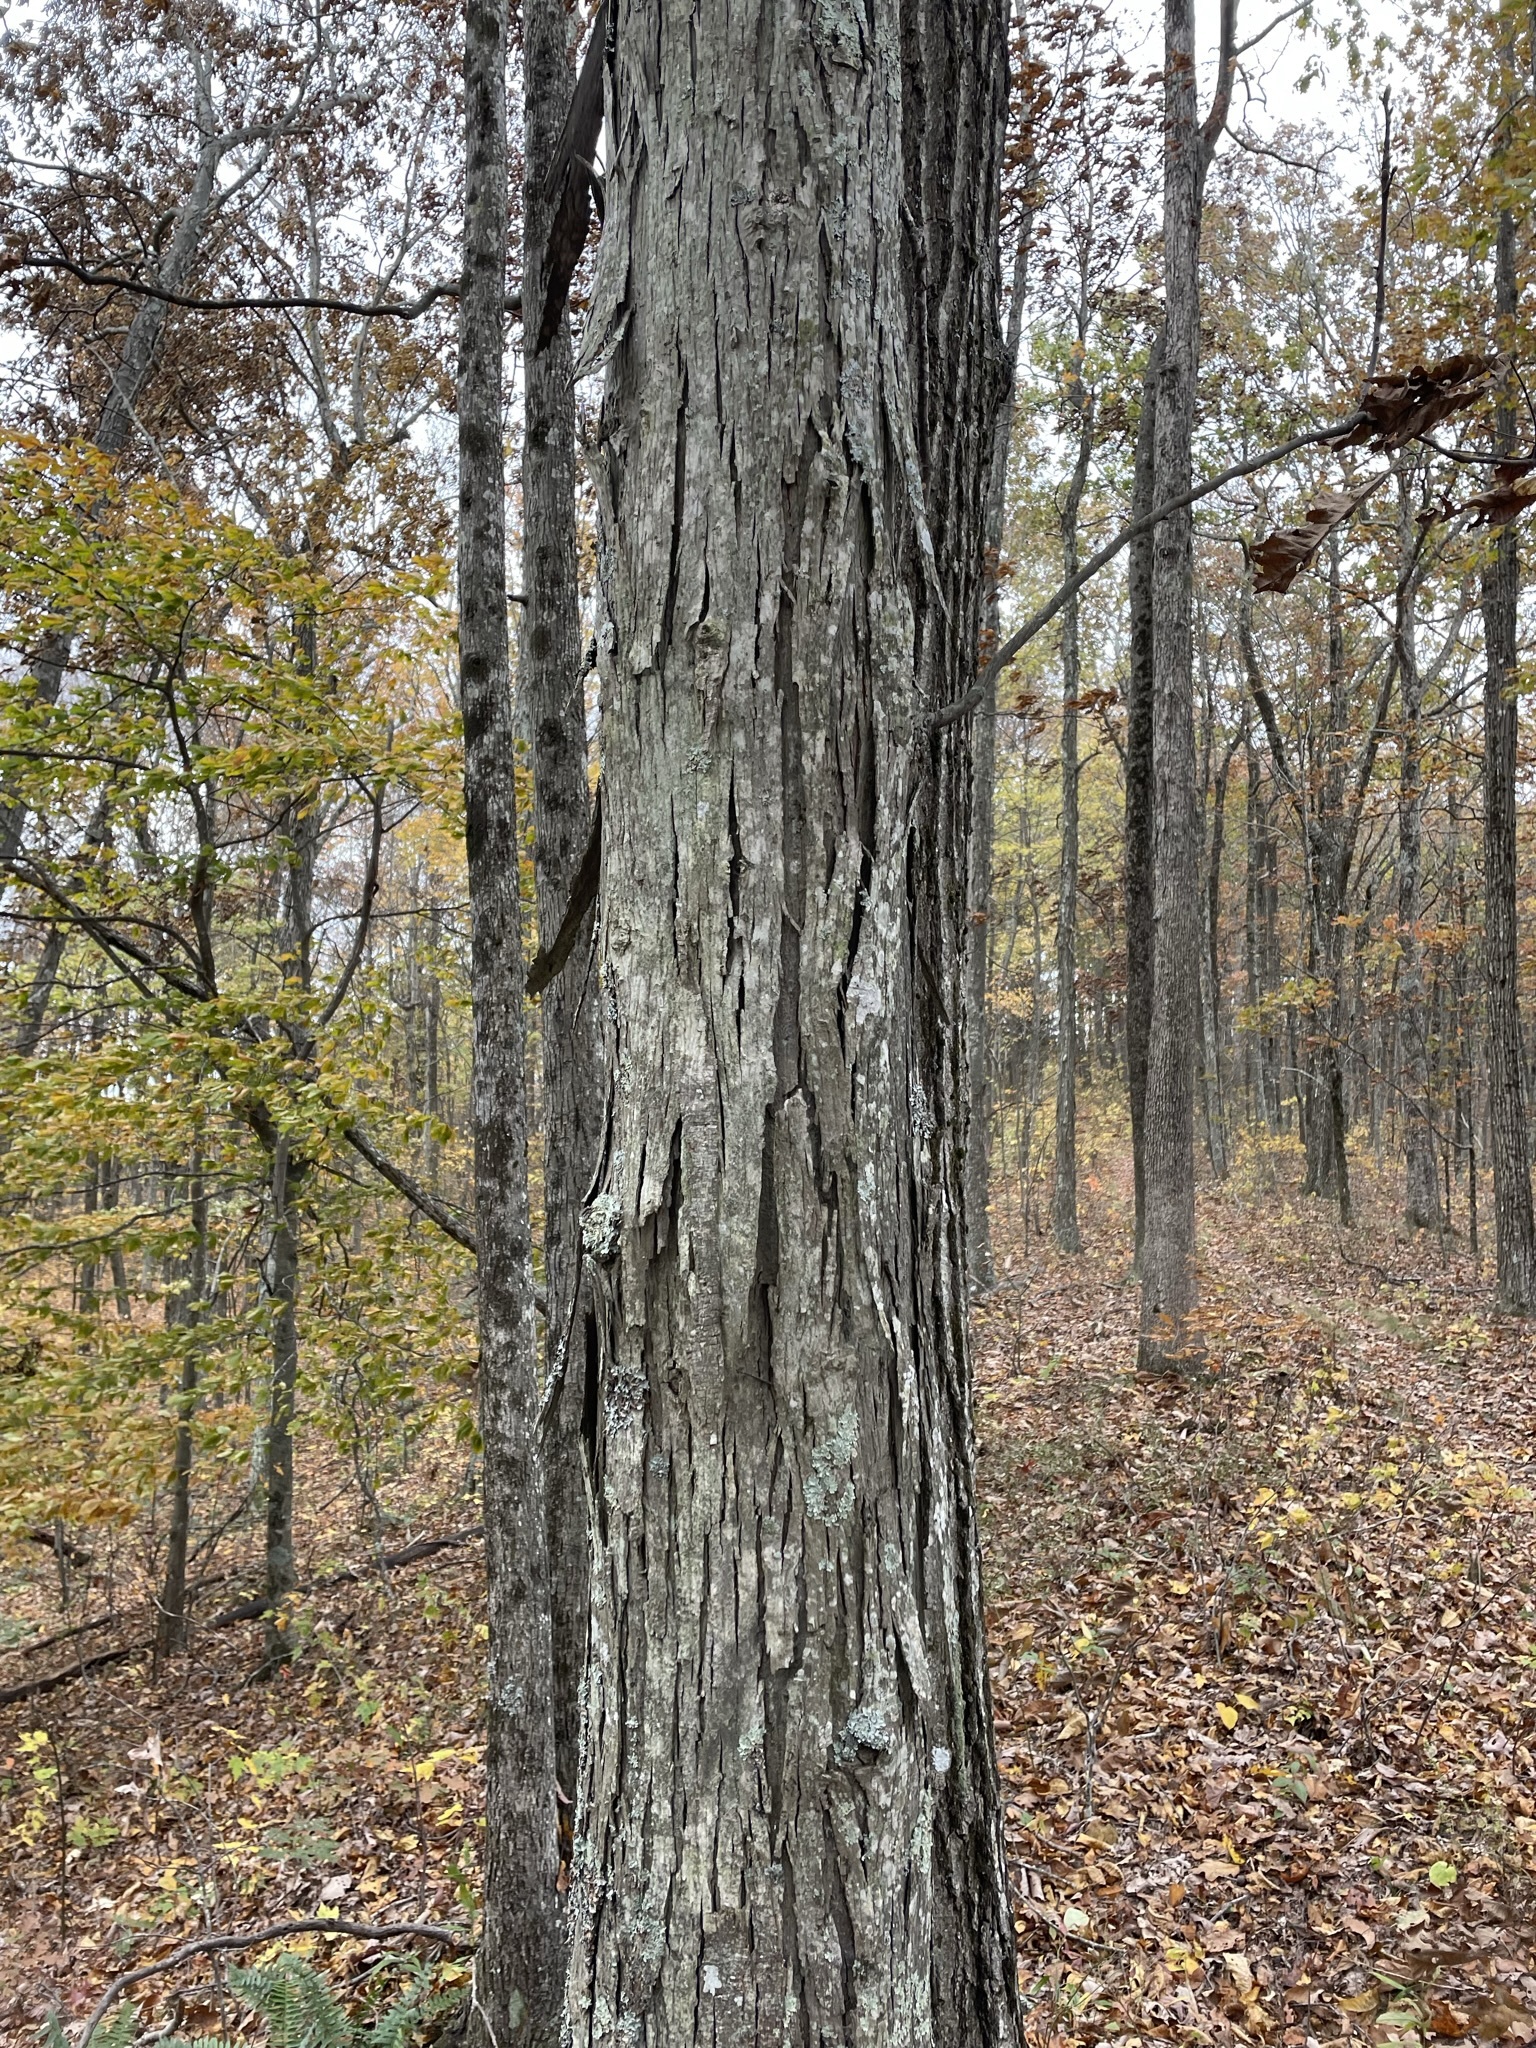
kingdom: Plantae
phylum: Tracheophyta
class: Magnoliopsida
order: Fagales
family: Juglandaceae
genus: Carya
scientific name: Carya ovata
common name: Shagbark hickory
